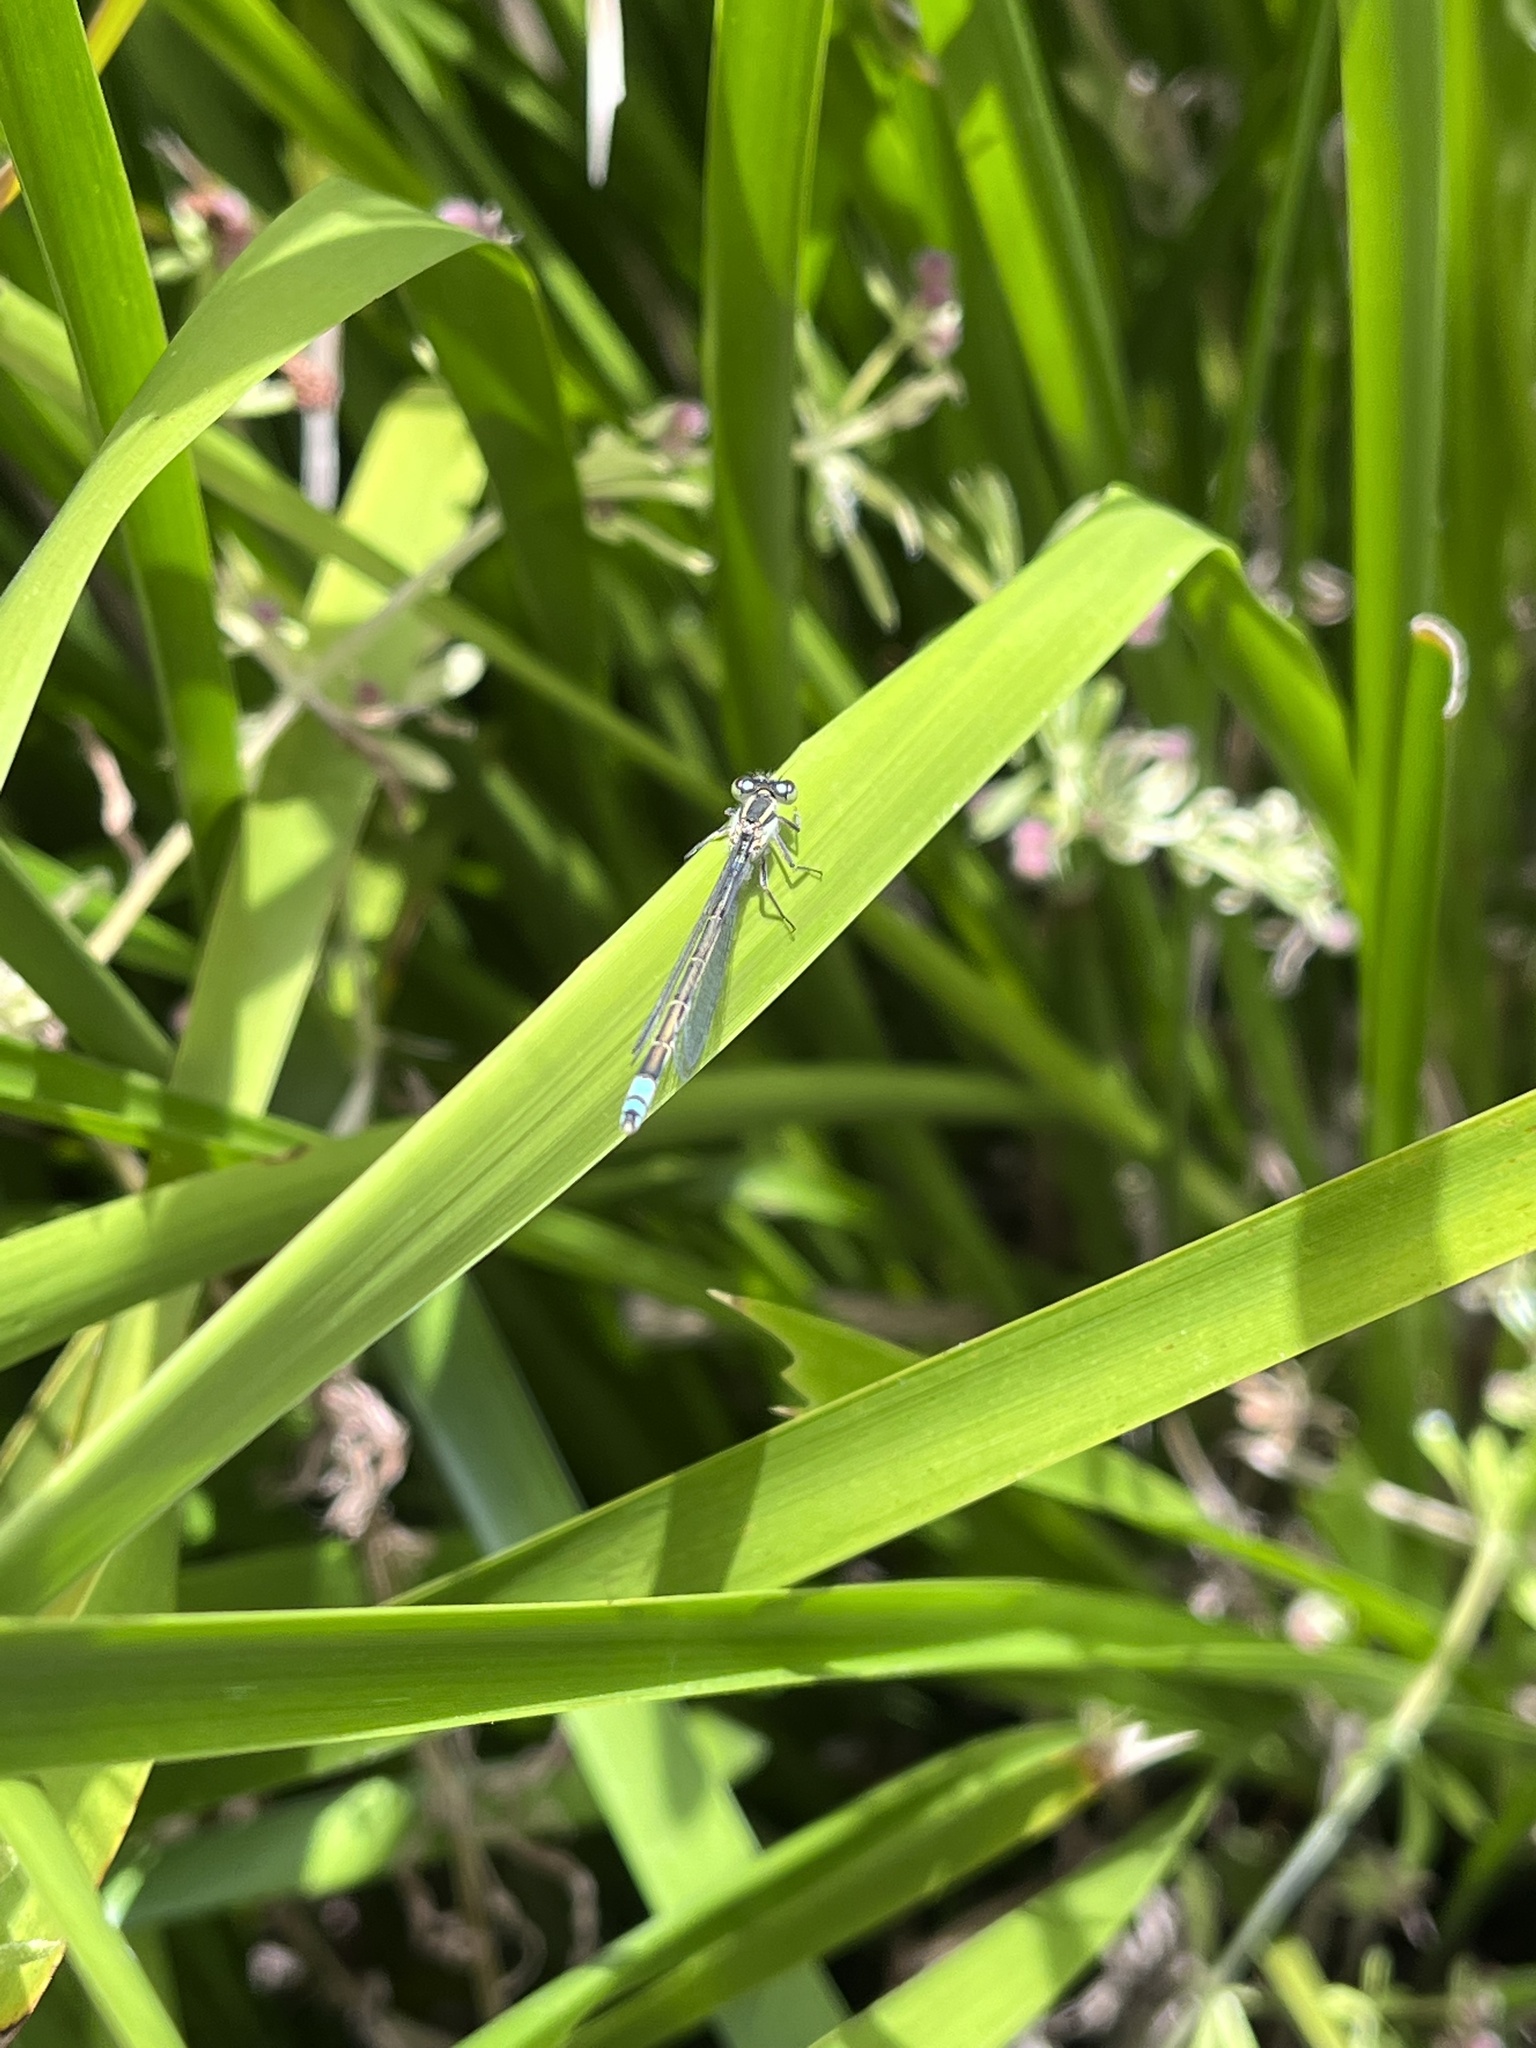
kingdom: Animalia
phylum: Arthropoda
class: Insecta
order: Odonata
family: Coenagrionidae
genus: Ischnura
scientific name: Ischnura heterosticta
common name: Common bluetail
